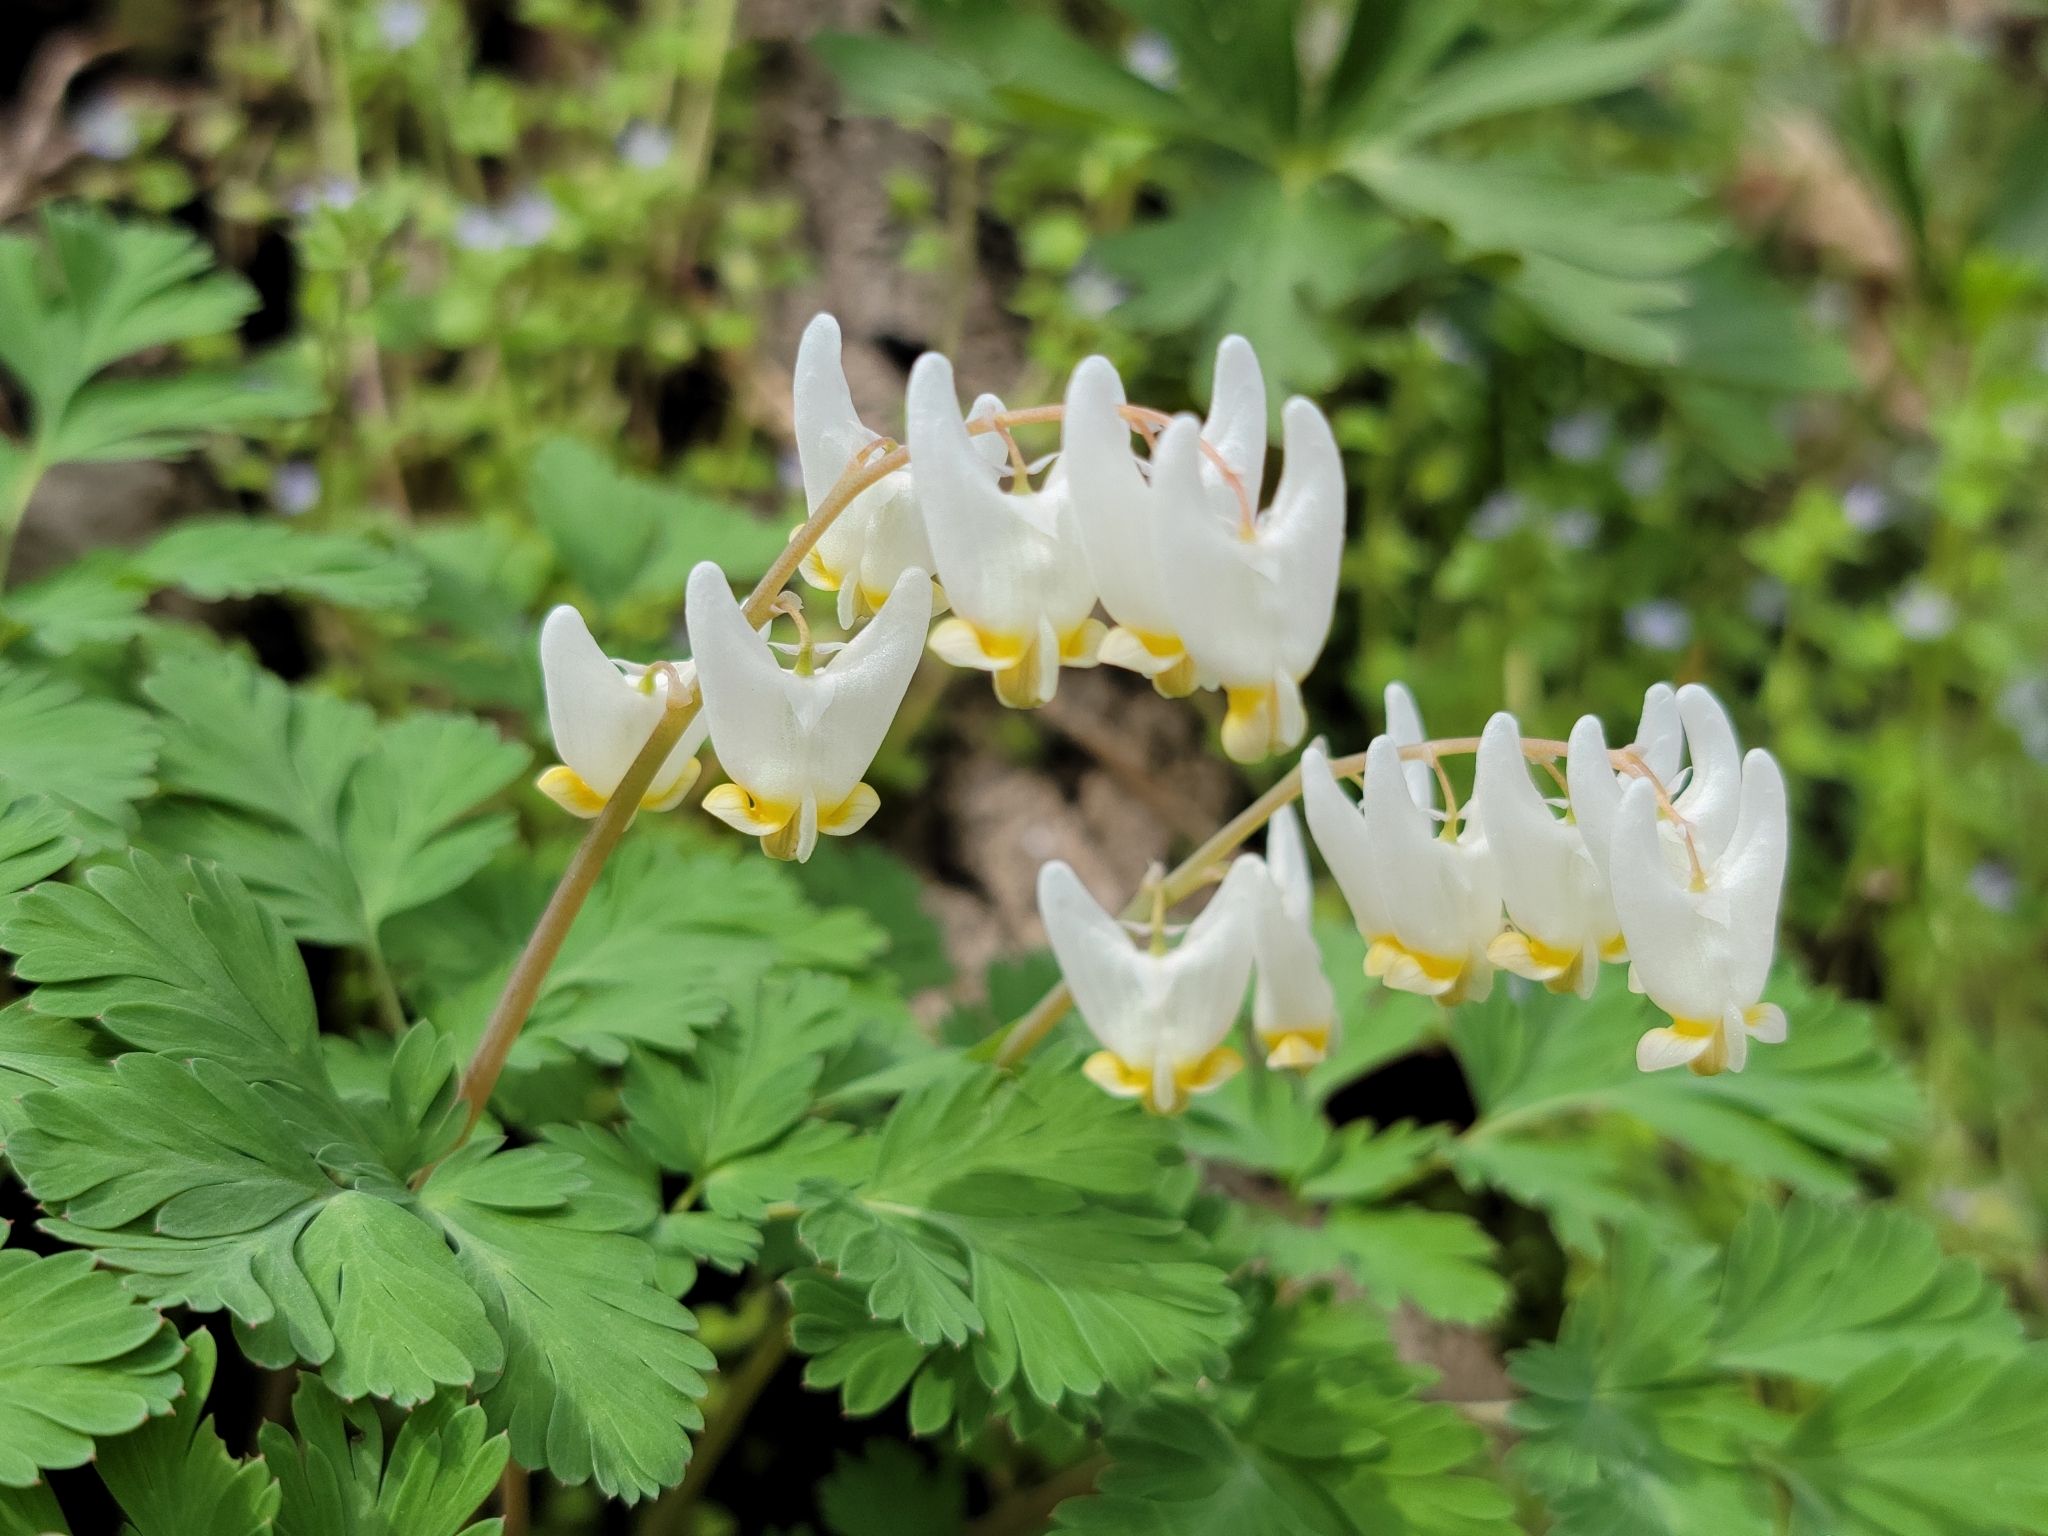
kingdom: Plantae
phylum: Tracheophyta
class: Magnoliopsida
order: Ranunculales
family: Papaveraceae
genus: Dicentra
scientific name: Dicentra cucullaria
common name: Dutchman's breeches
